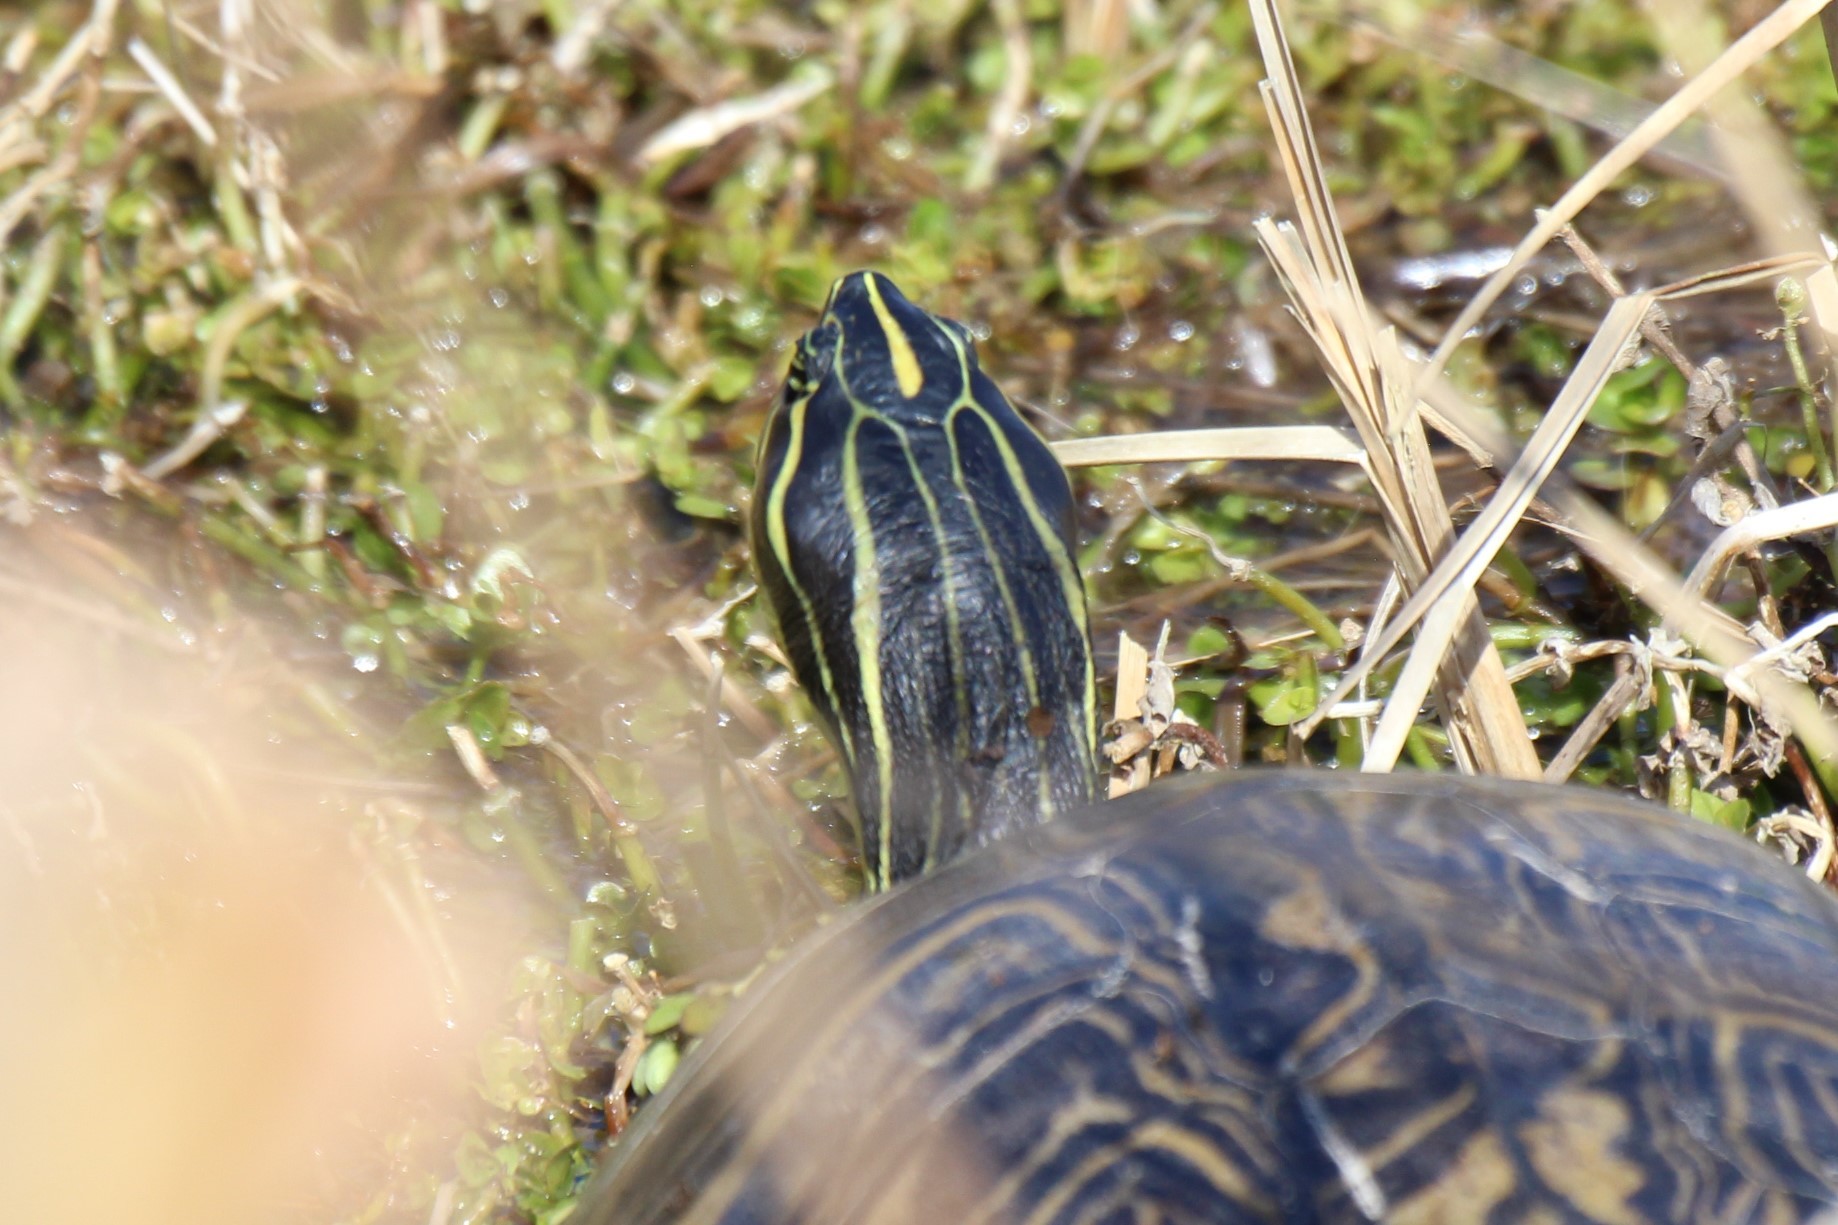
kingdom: Animalia
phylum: Chordata
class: Testudines
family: Emydidae
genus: Pseudemys
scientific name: Pseudemys peninsularis
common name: Peninsula cooter
